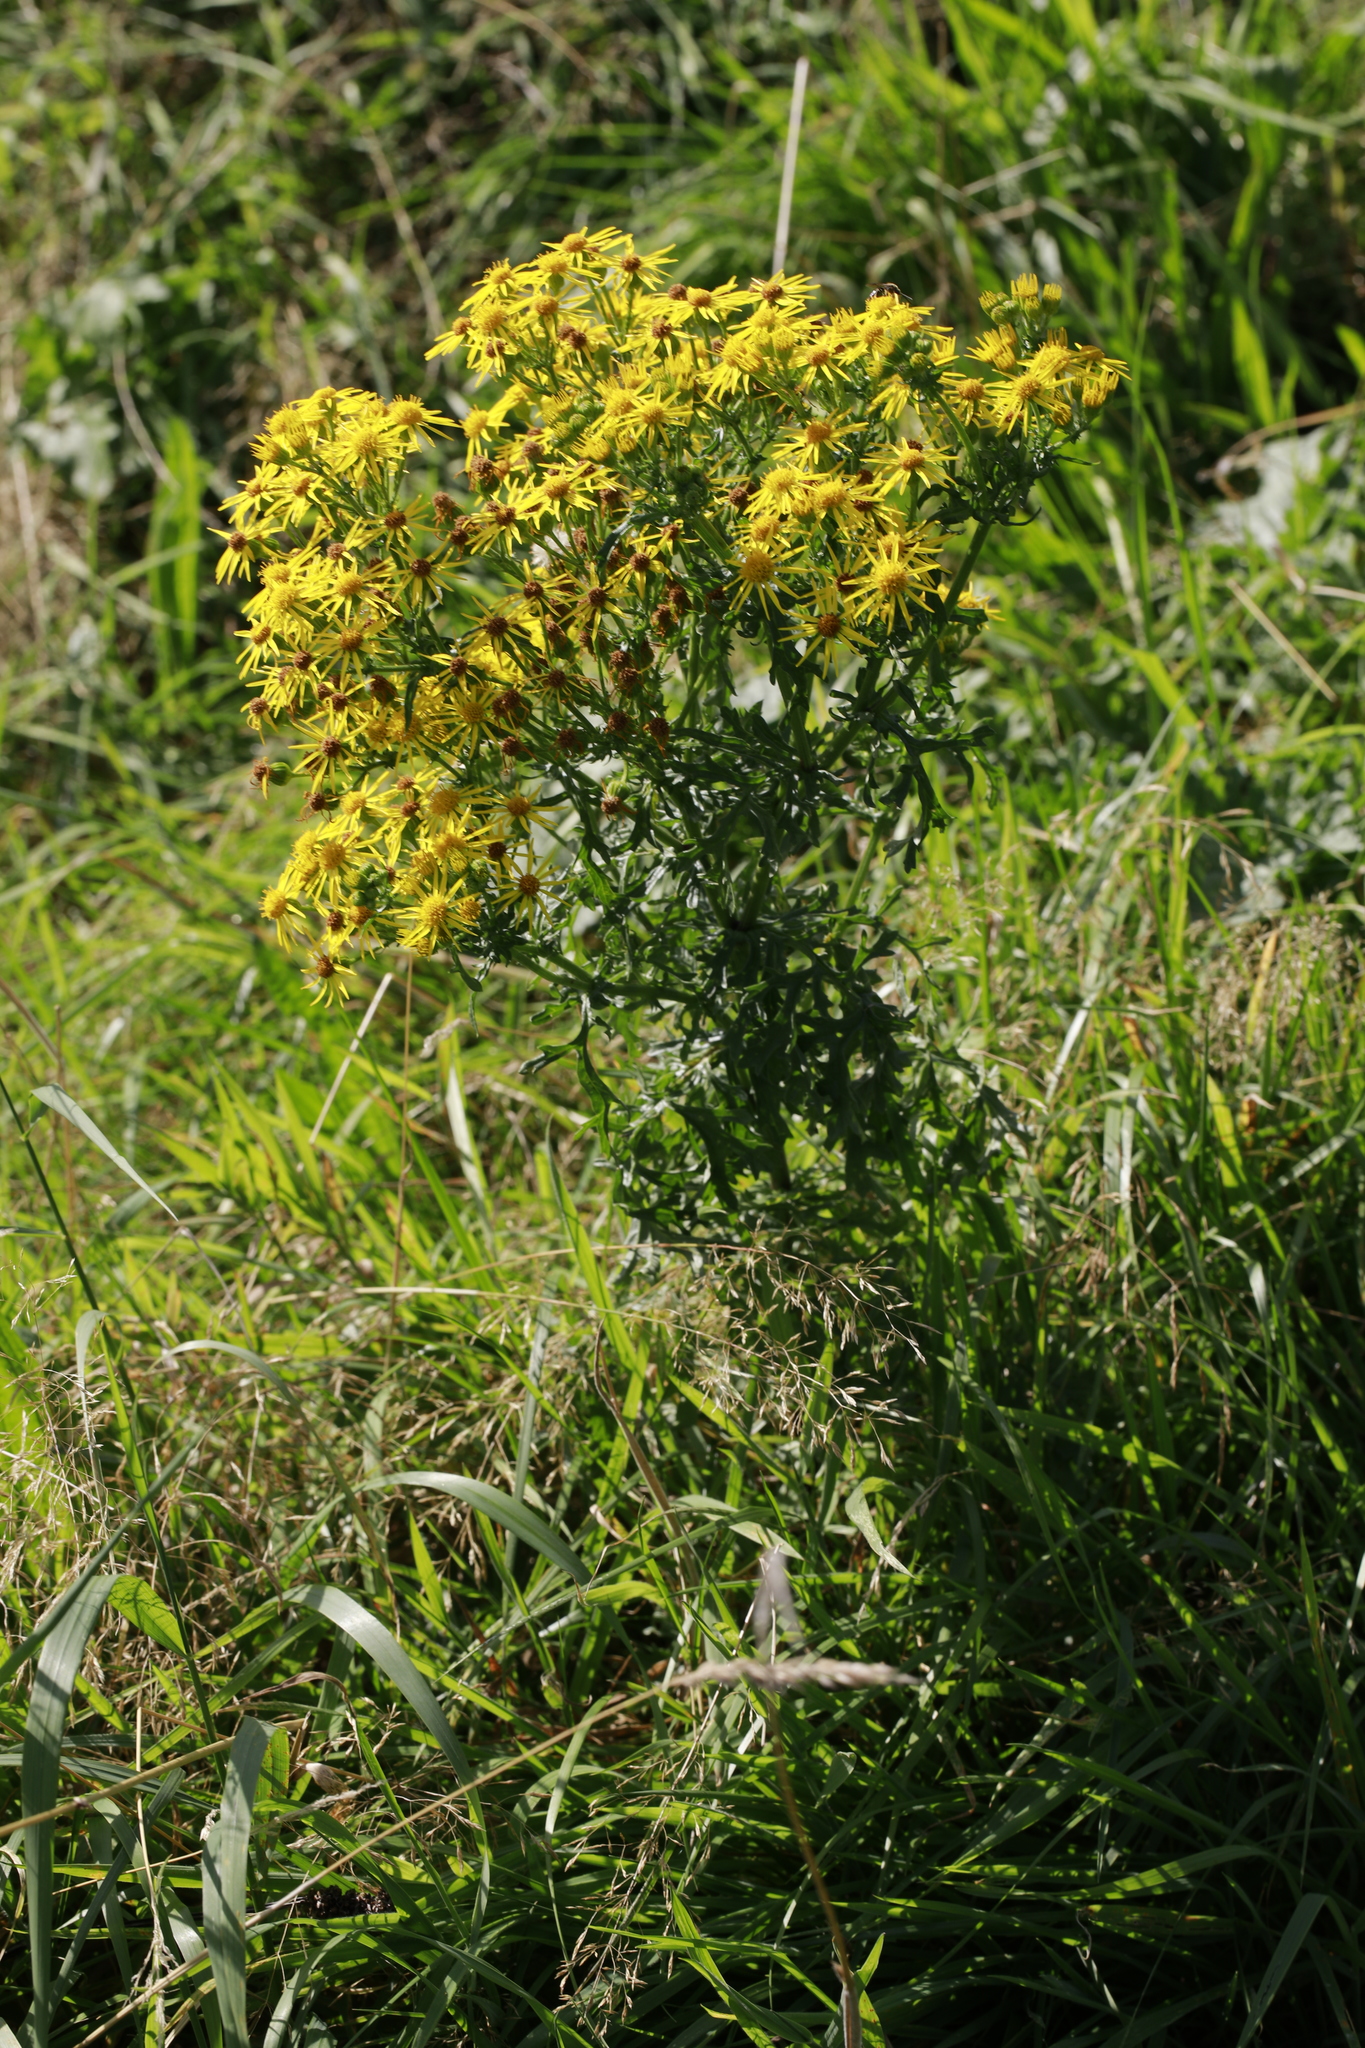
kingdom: Plantae
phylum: Tracheophyta
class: Magnoliopsida
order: Asterales
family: Asteraceae
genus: Jacobaea
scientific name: Jacobaea vulgaris
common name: Stinking willie
